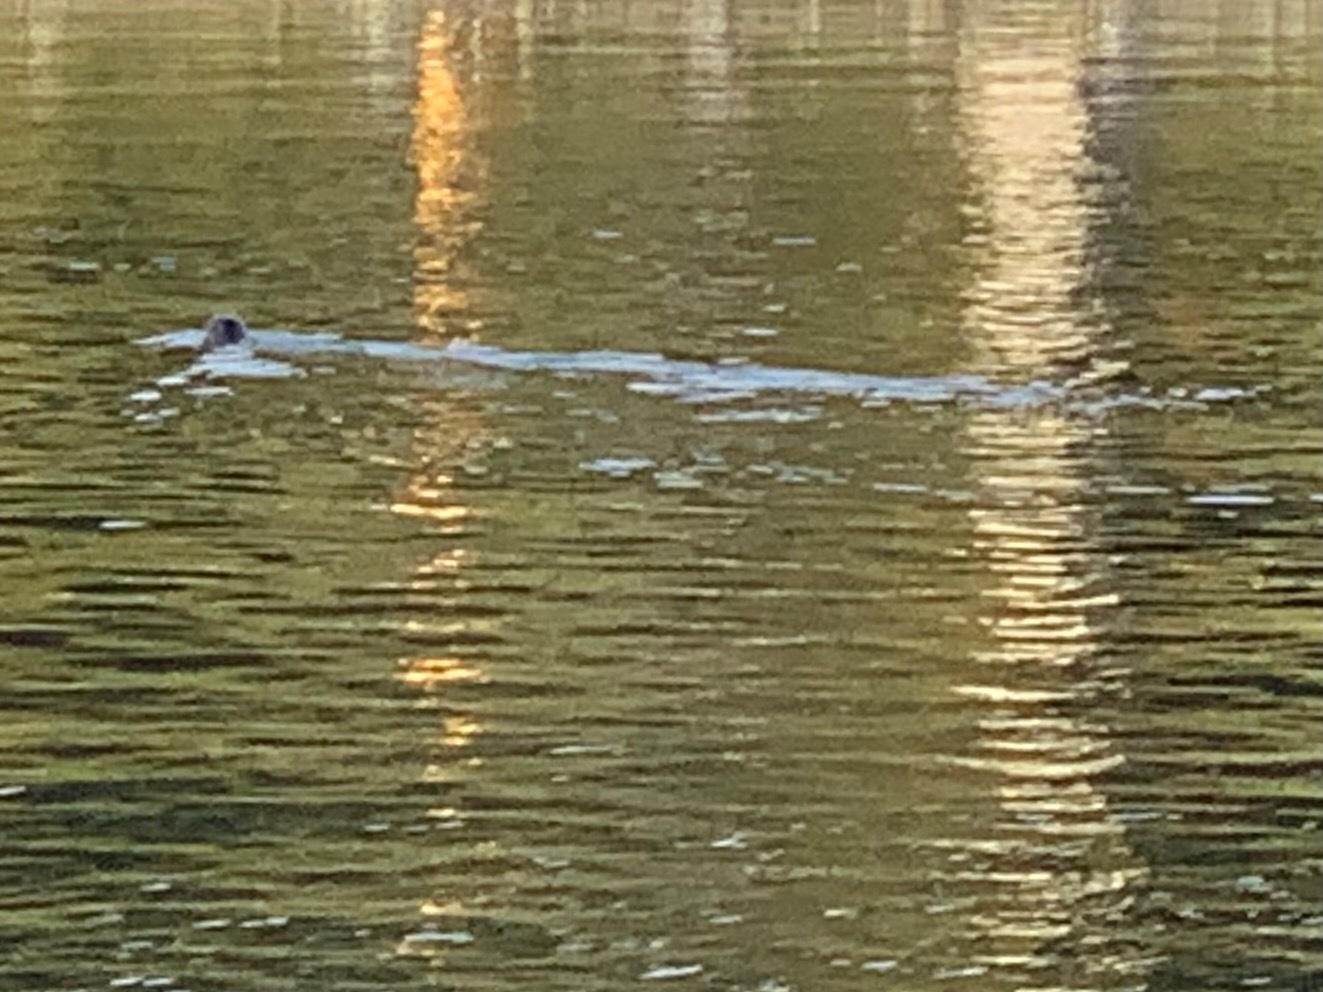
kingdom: Animalia
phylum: Chordata
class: Mammalia
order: Carnivora
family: Phocidae
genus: Phoca
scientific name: Phoca vitulina
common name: Harbor seal
